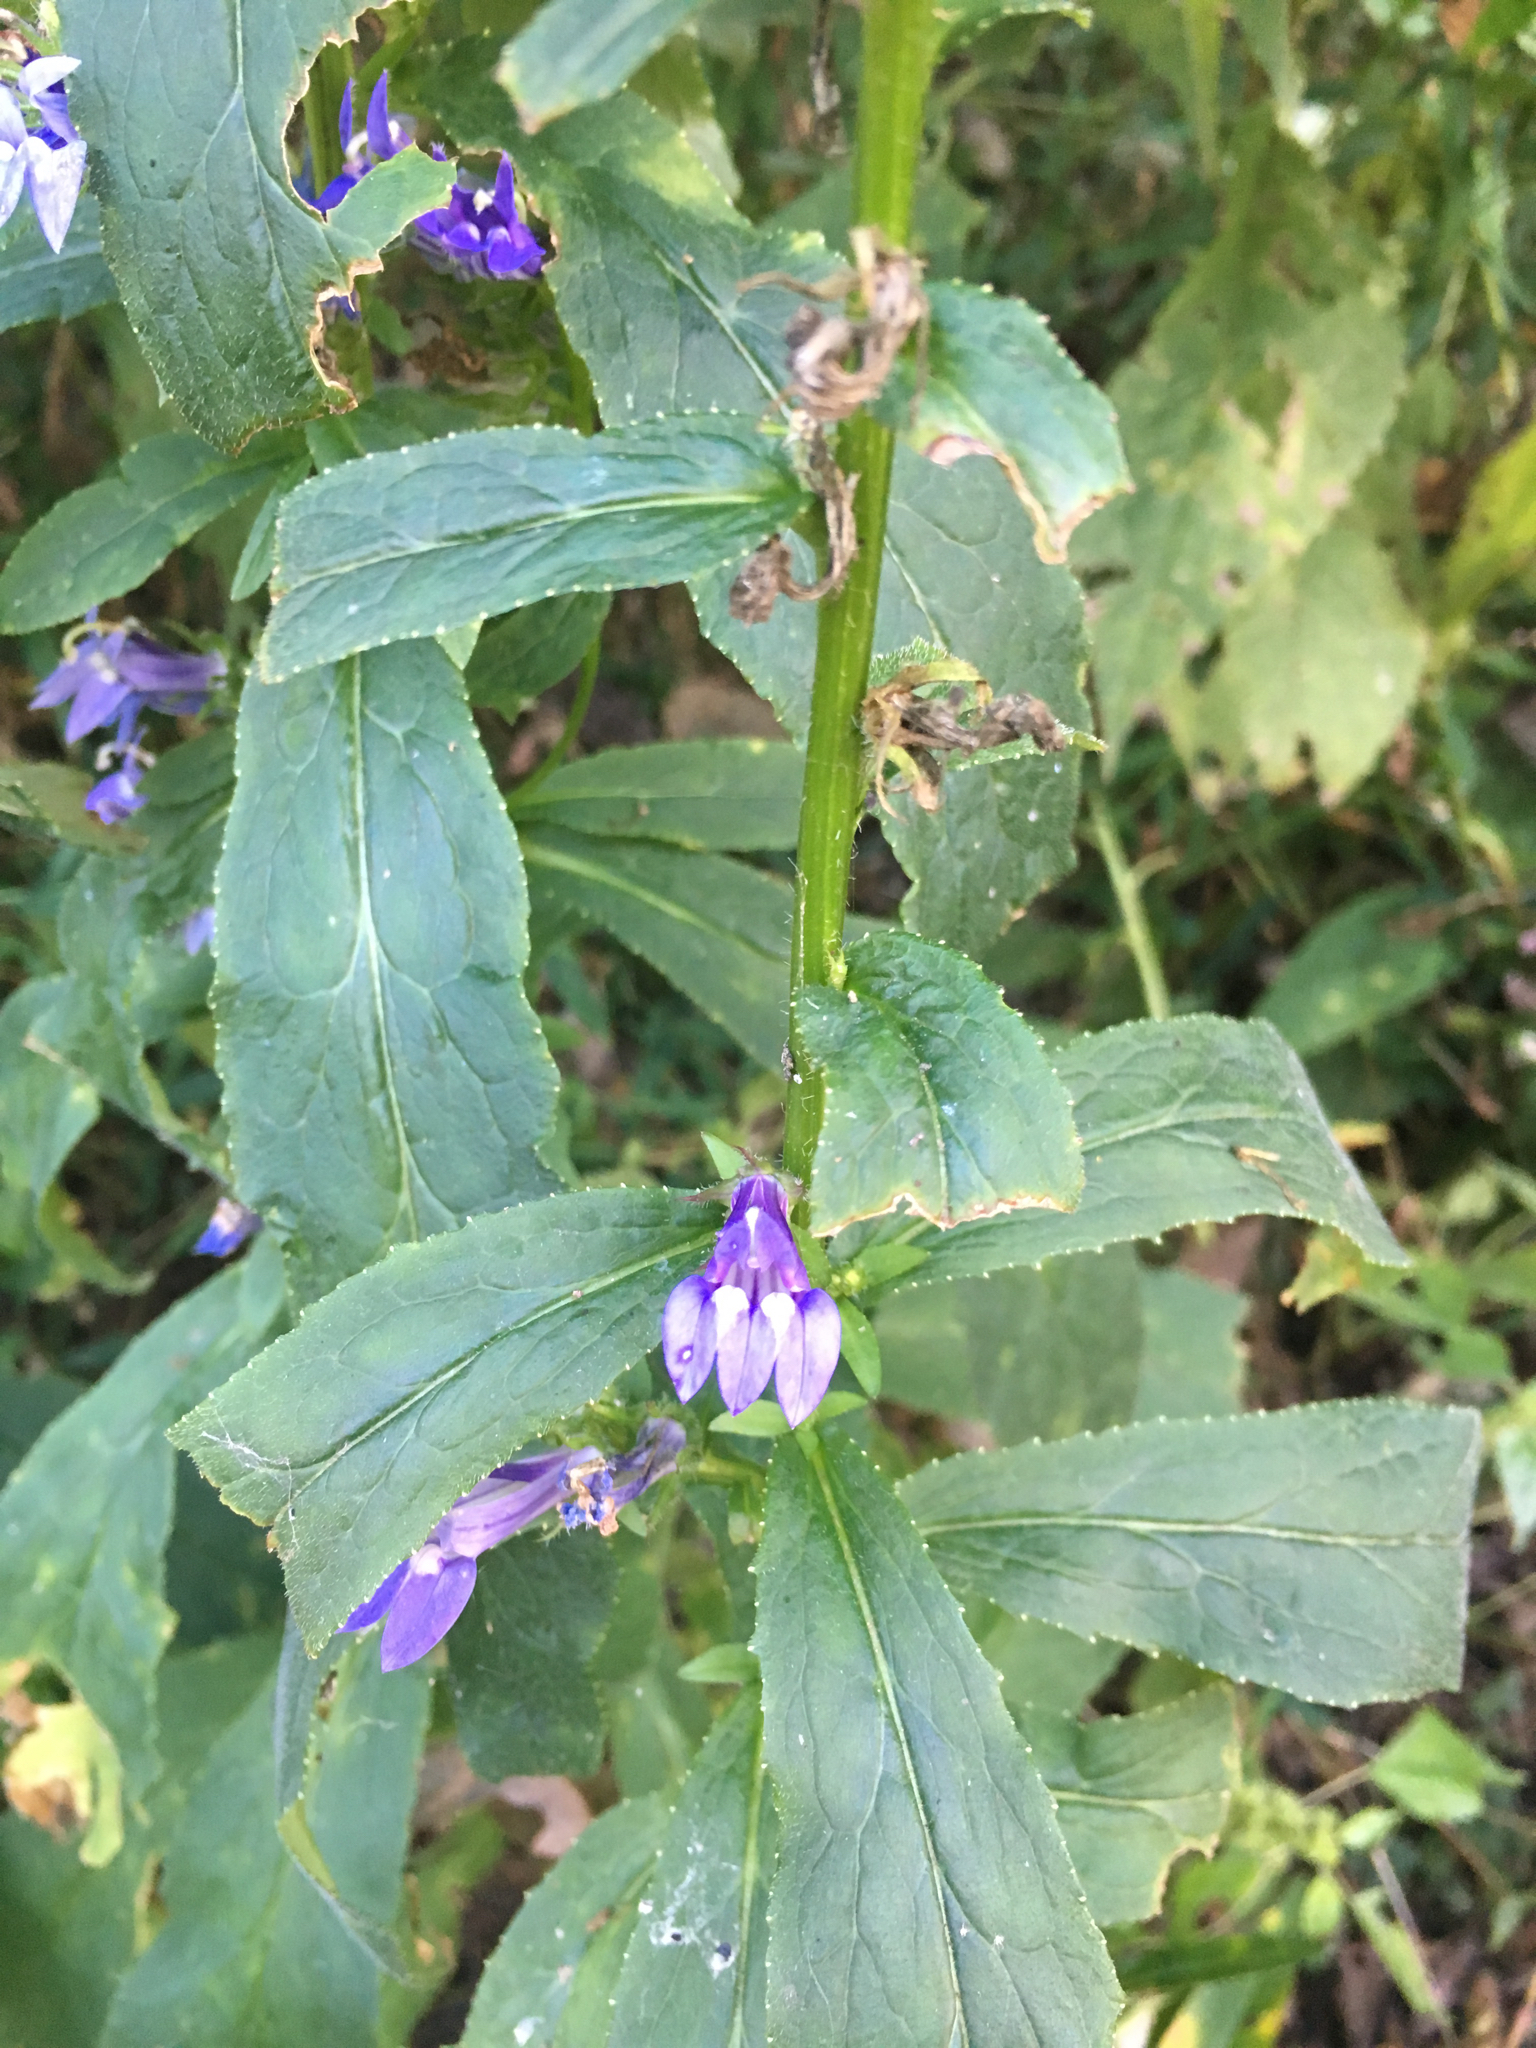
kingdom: Plantae
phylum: Tracheophyta
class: Magnoliopsida
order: Asterales
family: Campanulaceae
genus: Lobelia
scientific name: Lobelia siphilitica
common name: Great lobelia
